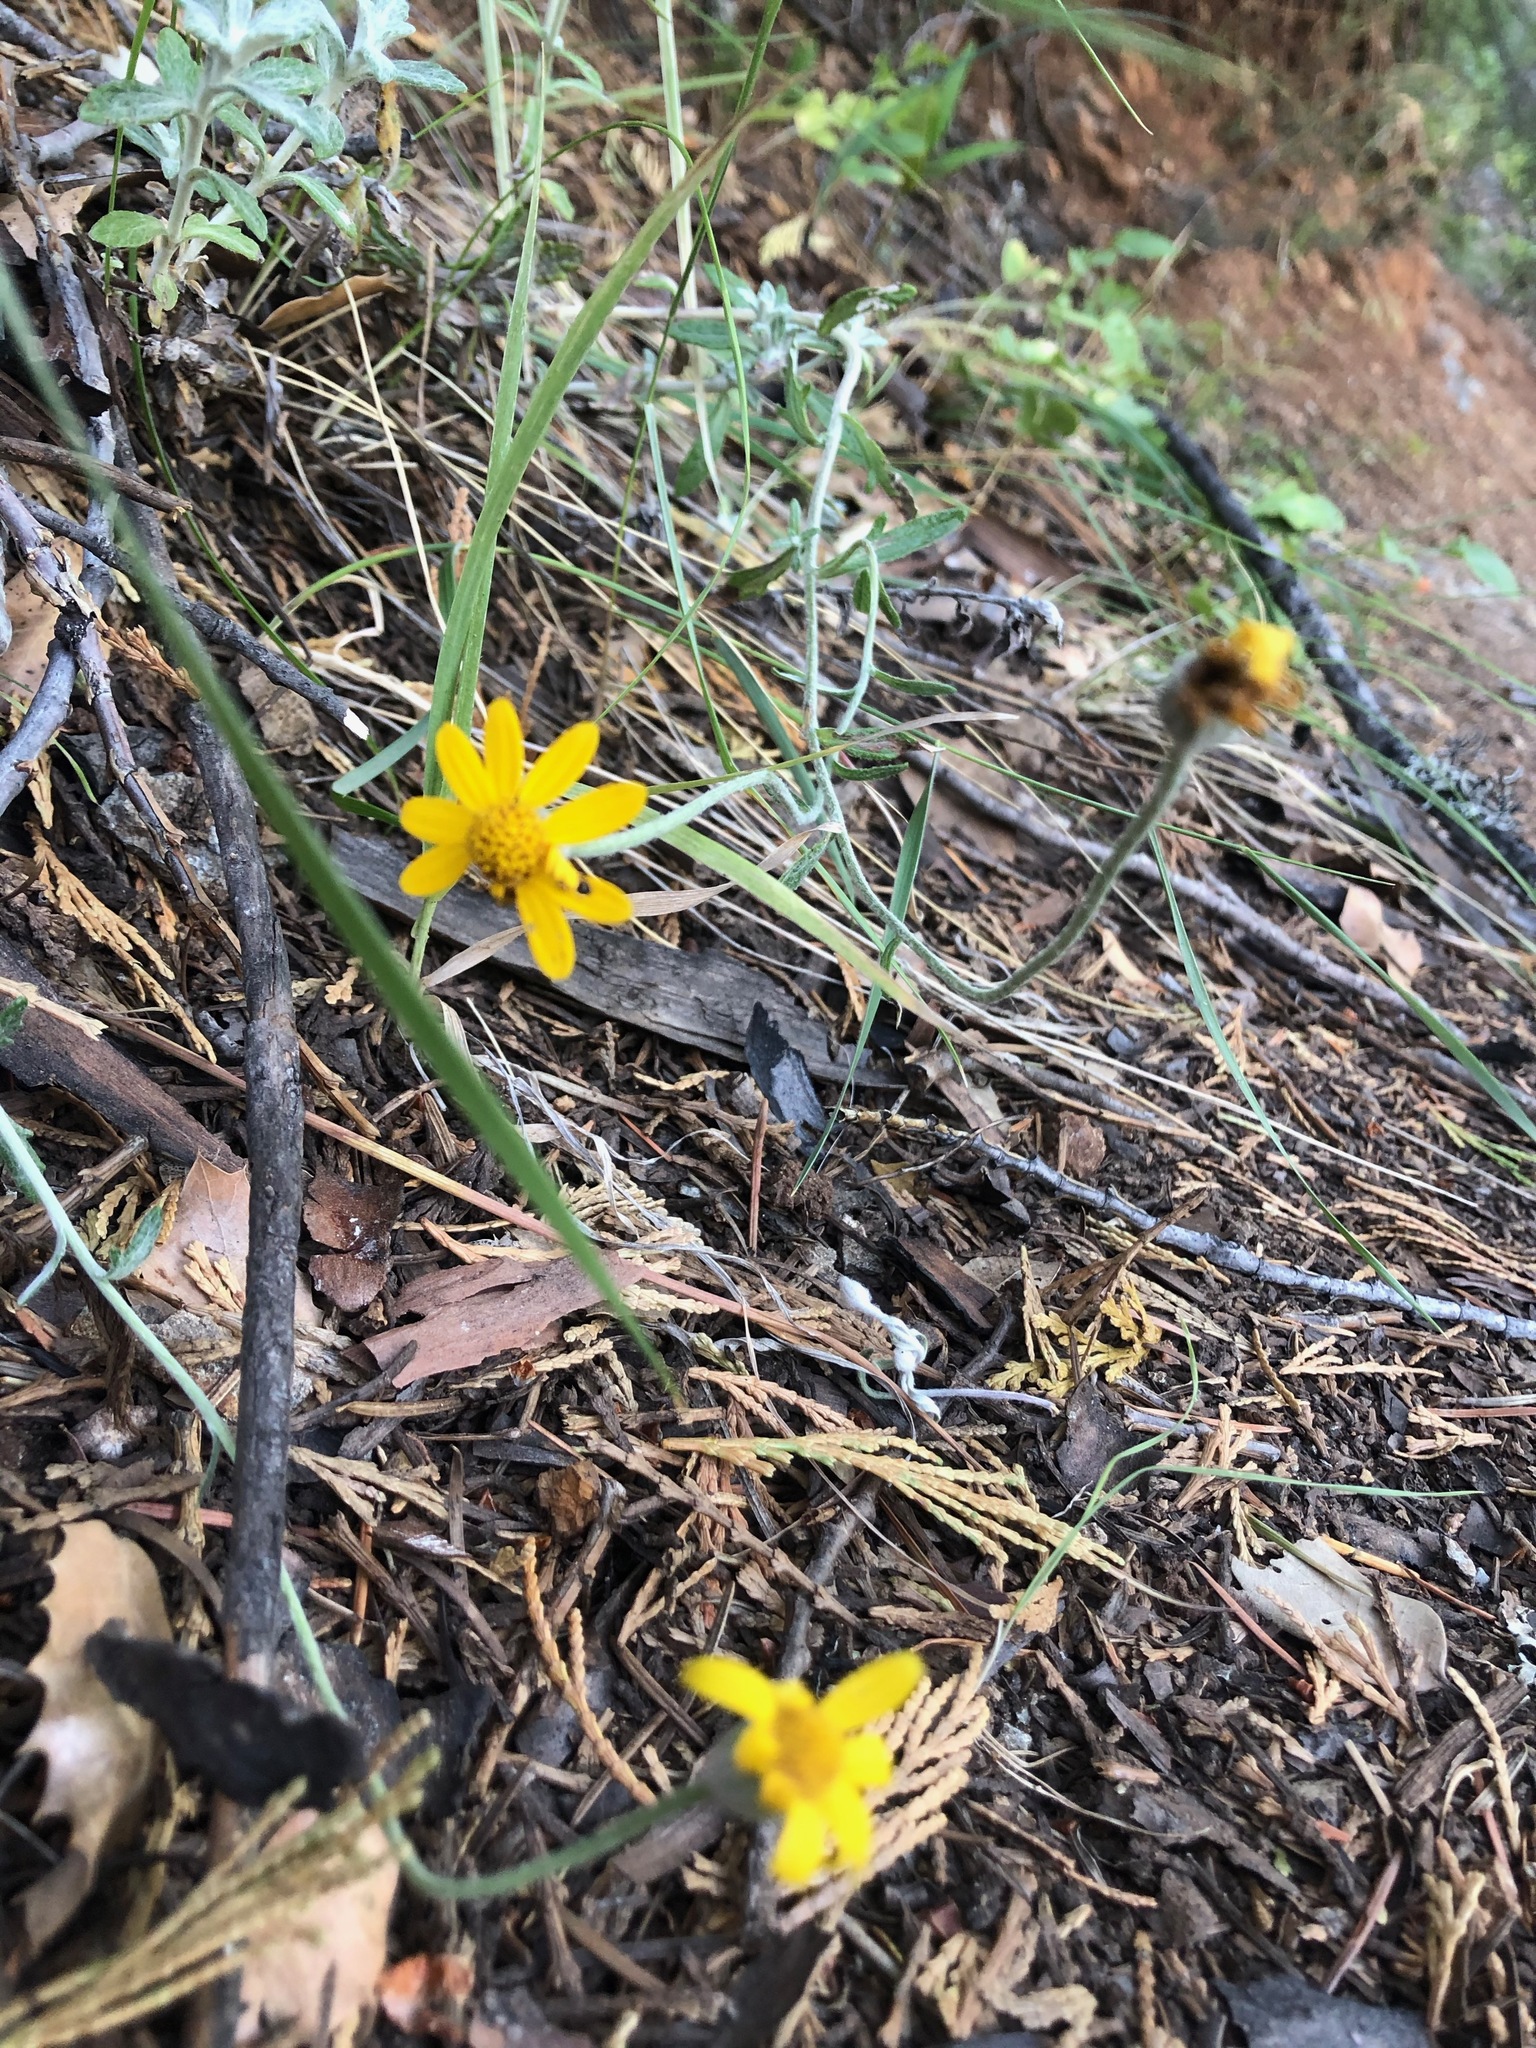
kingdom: Plantae
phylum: Tracheophyta
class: Magnoliopsida
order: Asterales
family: Asteraceae
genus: Eriophyllum
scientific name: Eriophyllum lanatum
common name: Common woolly-sunflower
